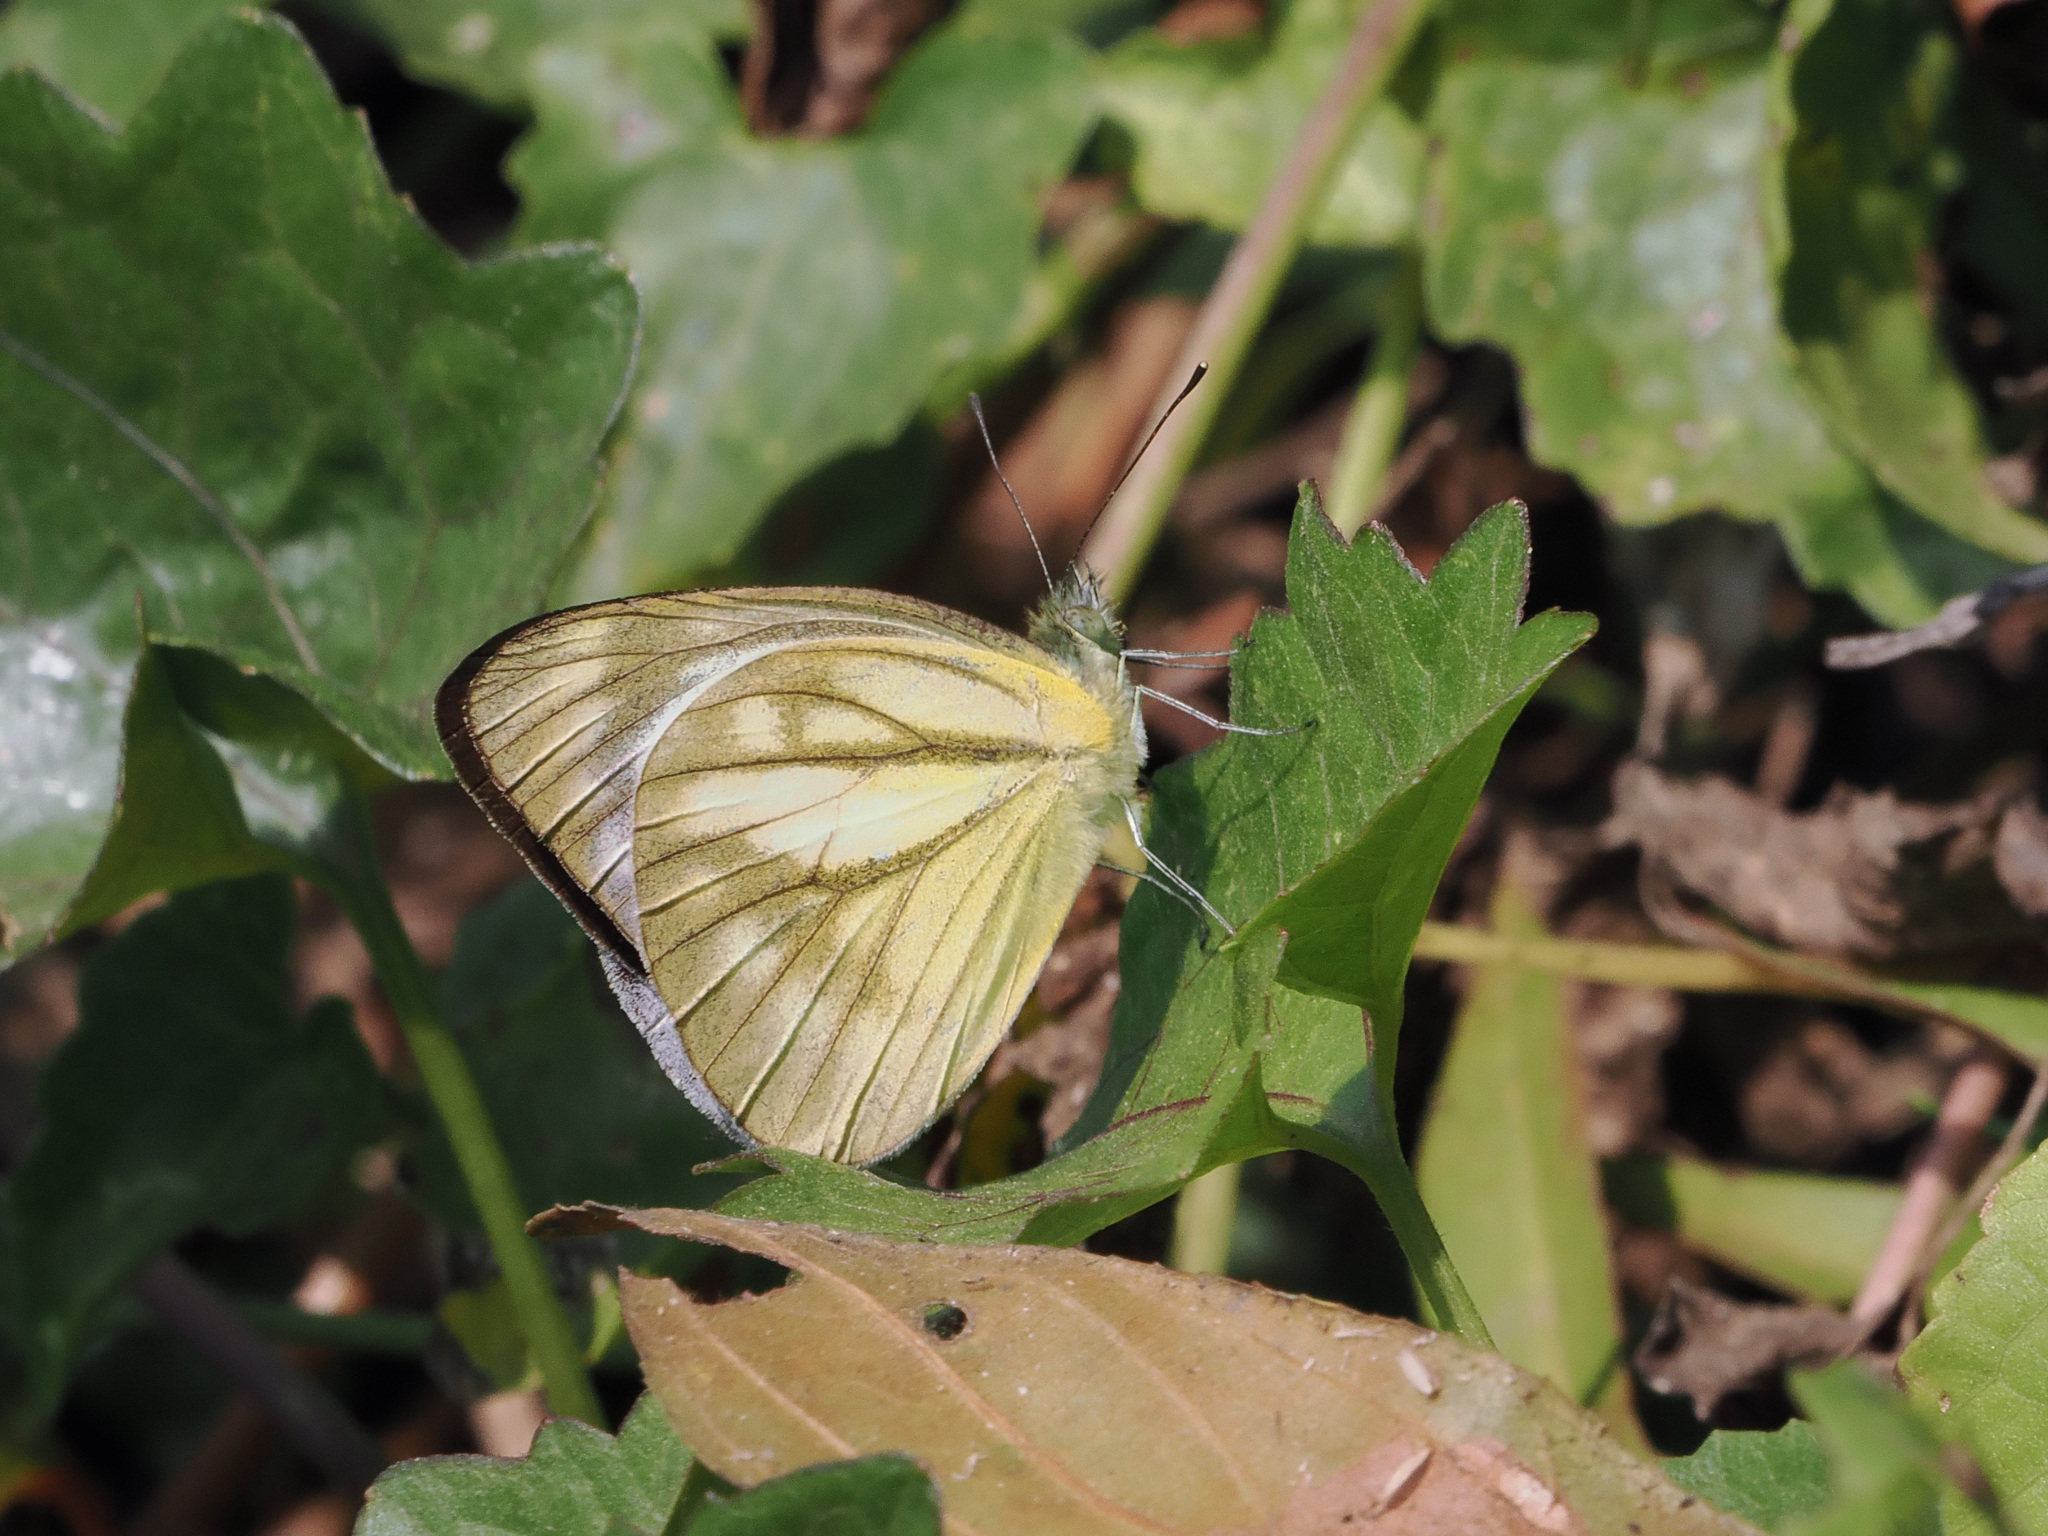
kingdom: Animalia
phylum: Arthropoda
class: Insecta
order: Lepidoptera
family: Pieridae
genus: Cepora
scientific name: Cepora nerissa
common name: Common gull
